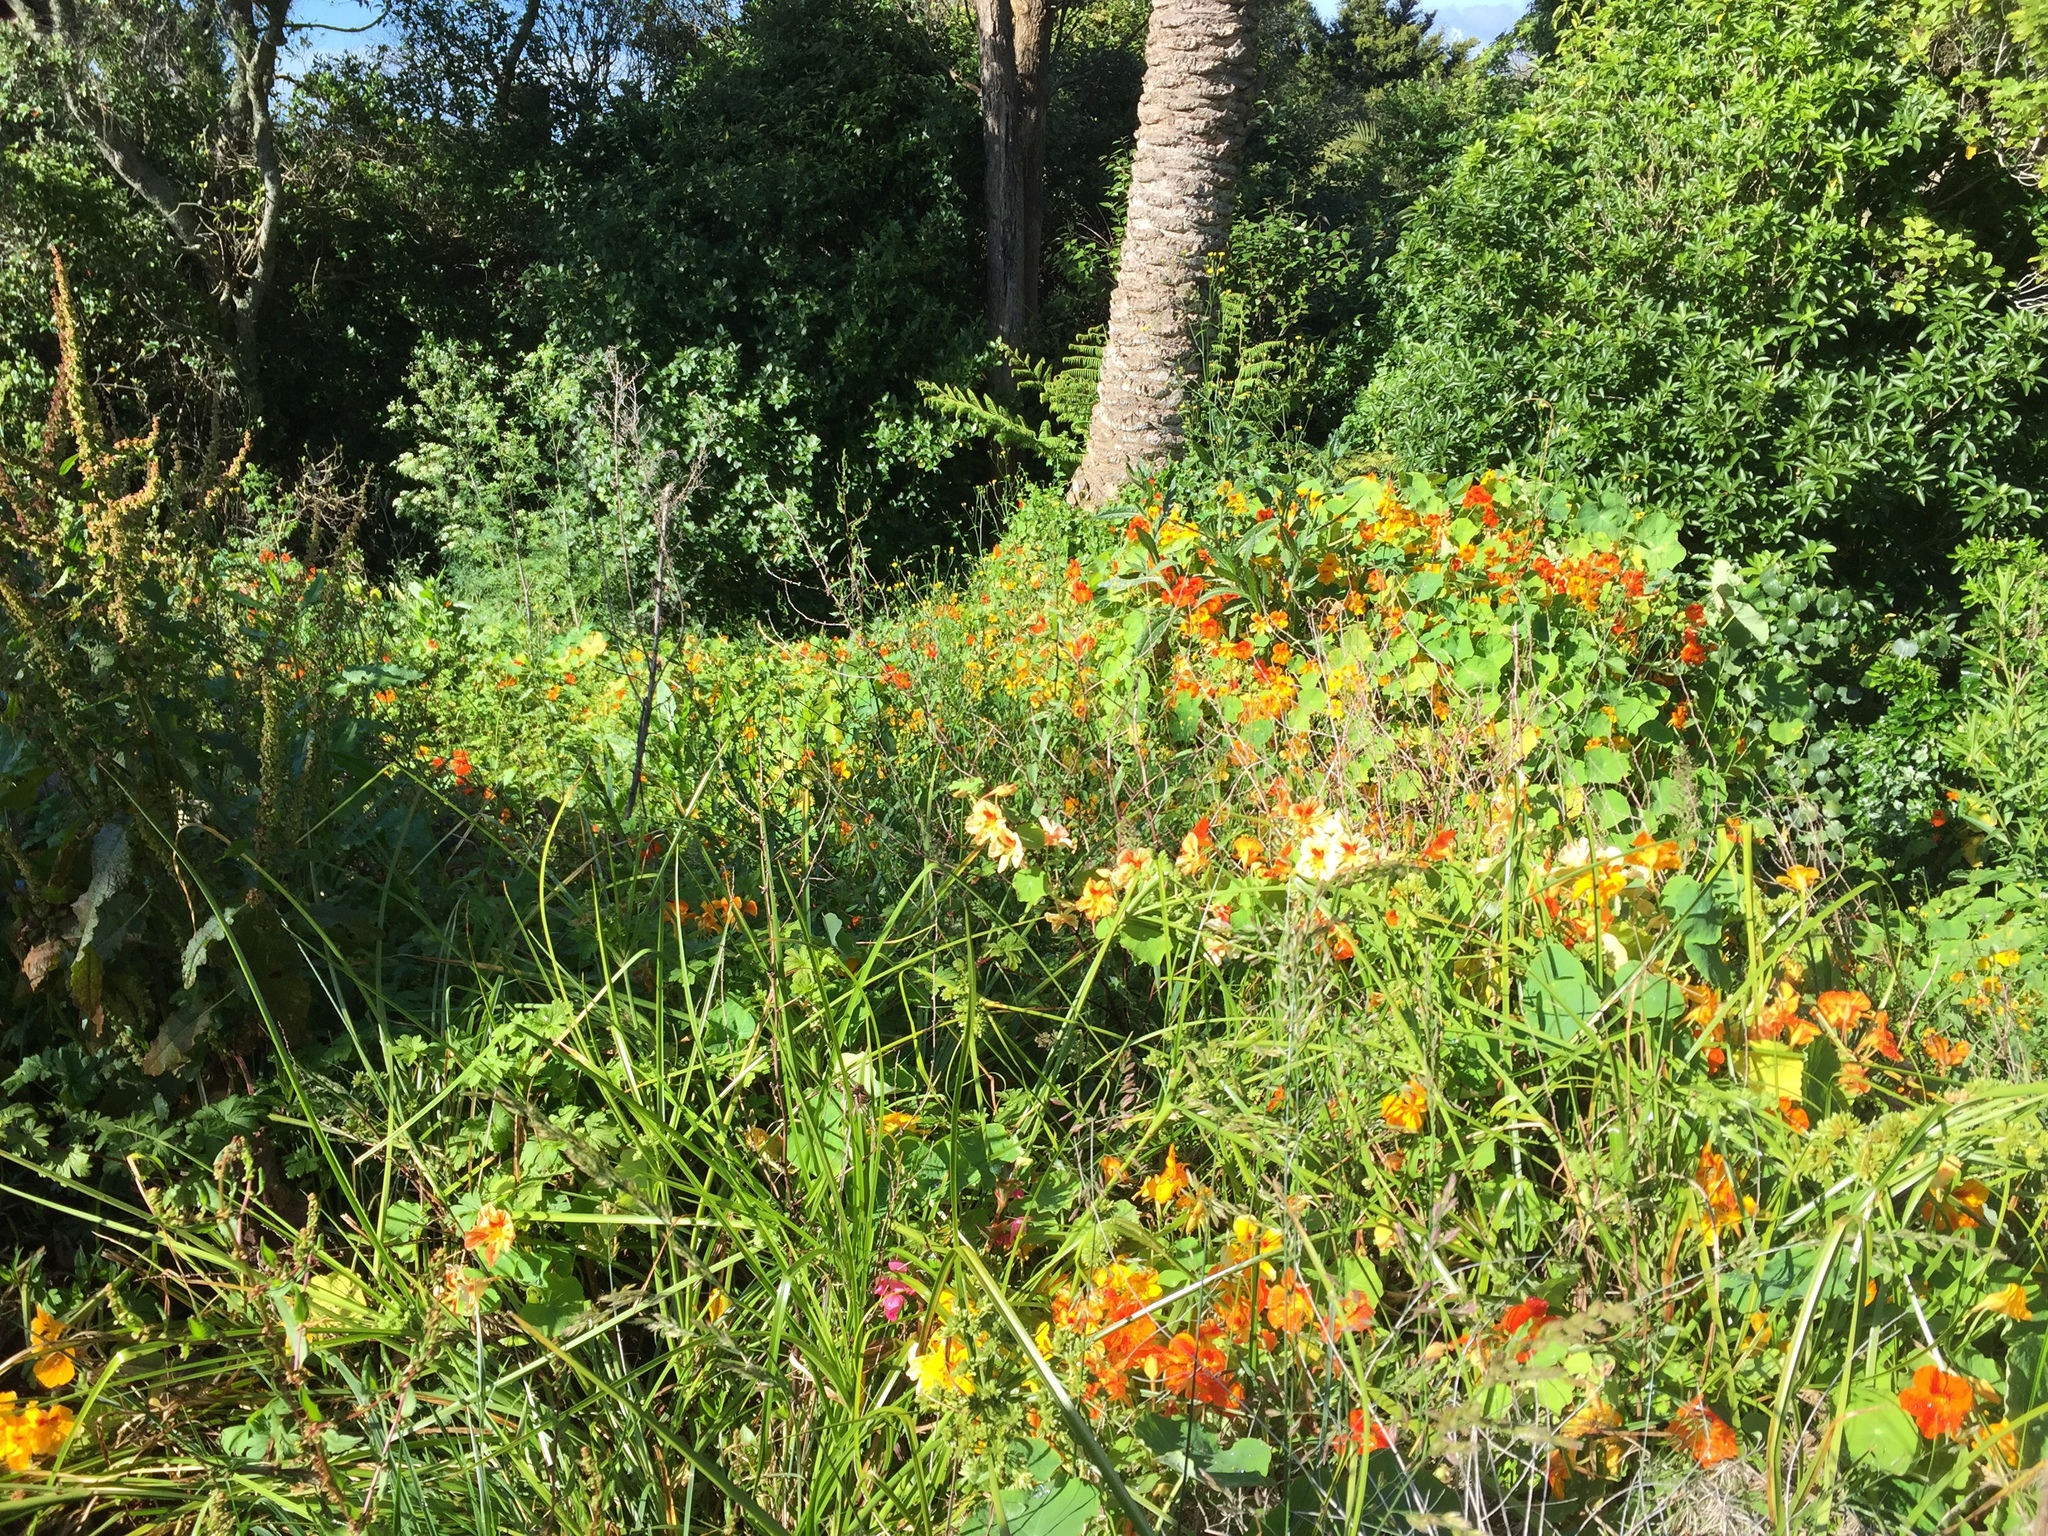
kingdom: Plantae
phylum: Tracheophyta
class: Magnoliopsida
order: Brassicales
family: Tropaeolaceae
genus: Tropaeolum
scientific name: Tropaeolum majus
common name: Nasturtium
